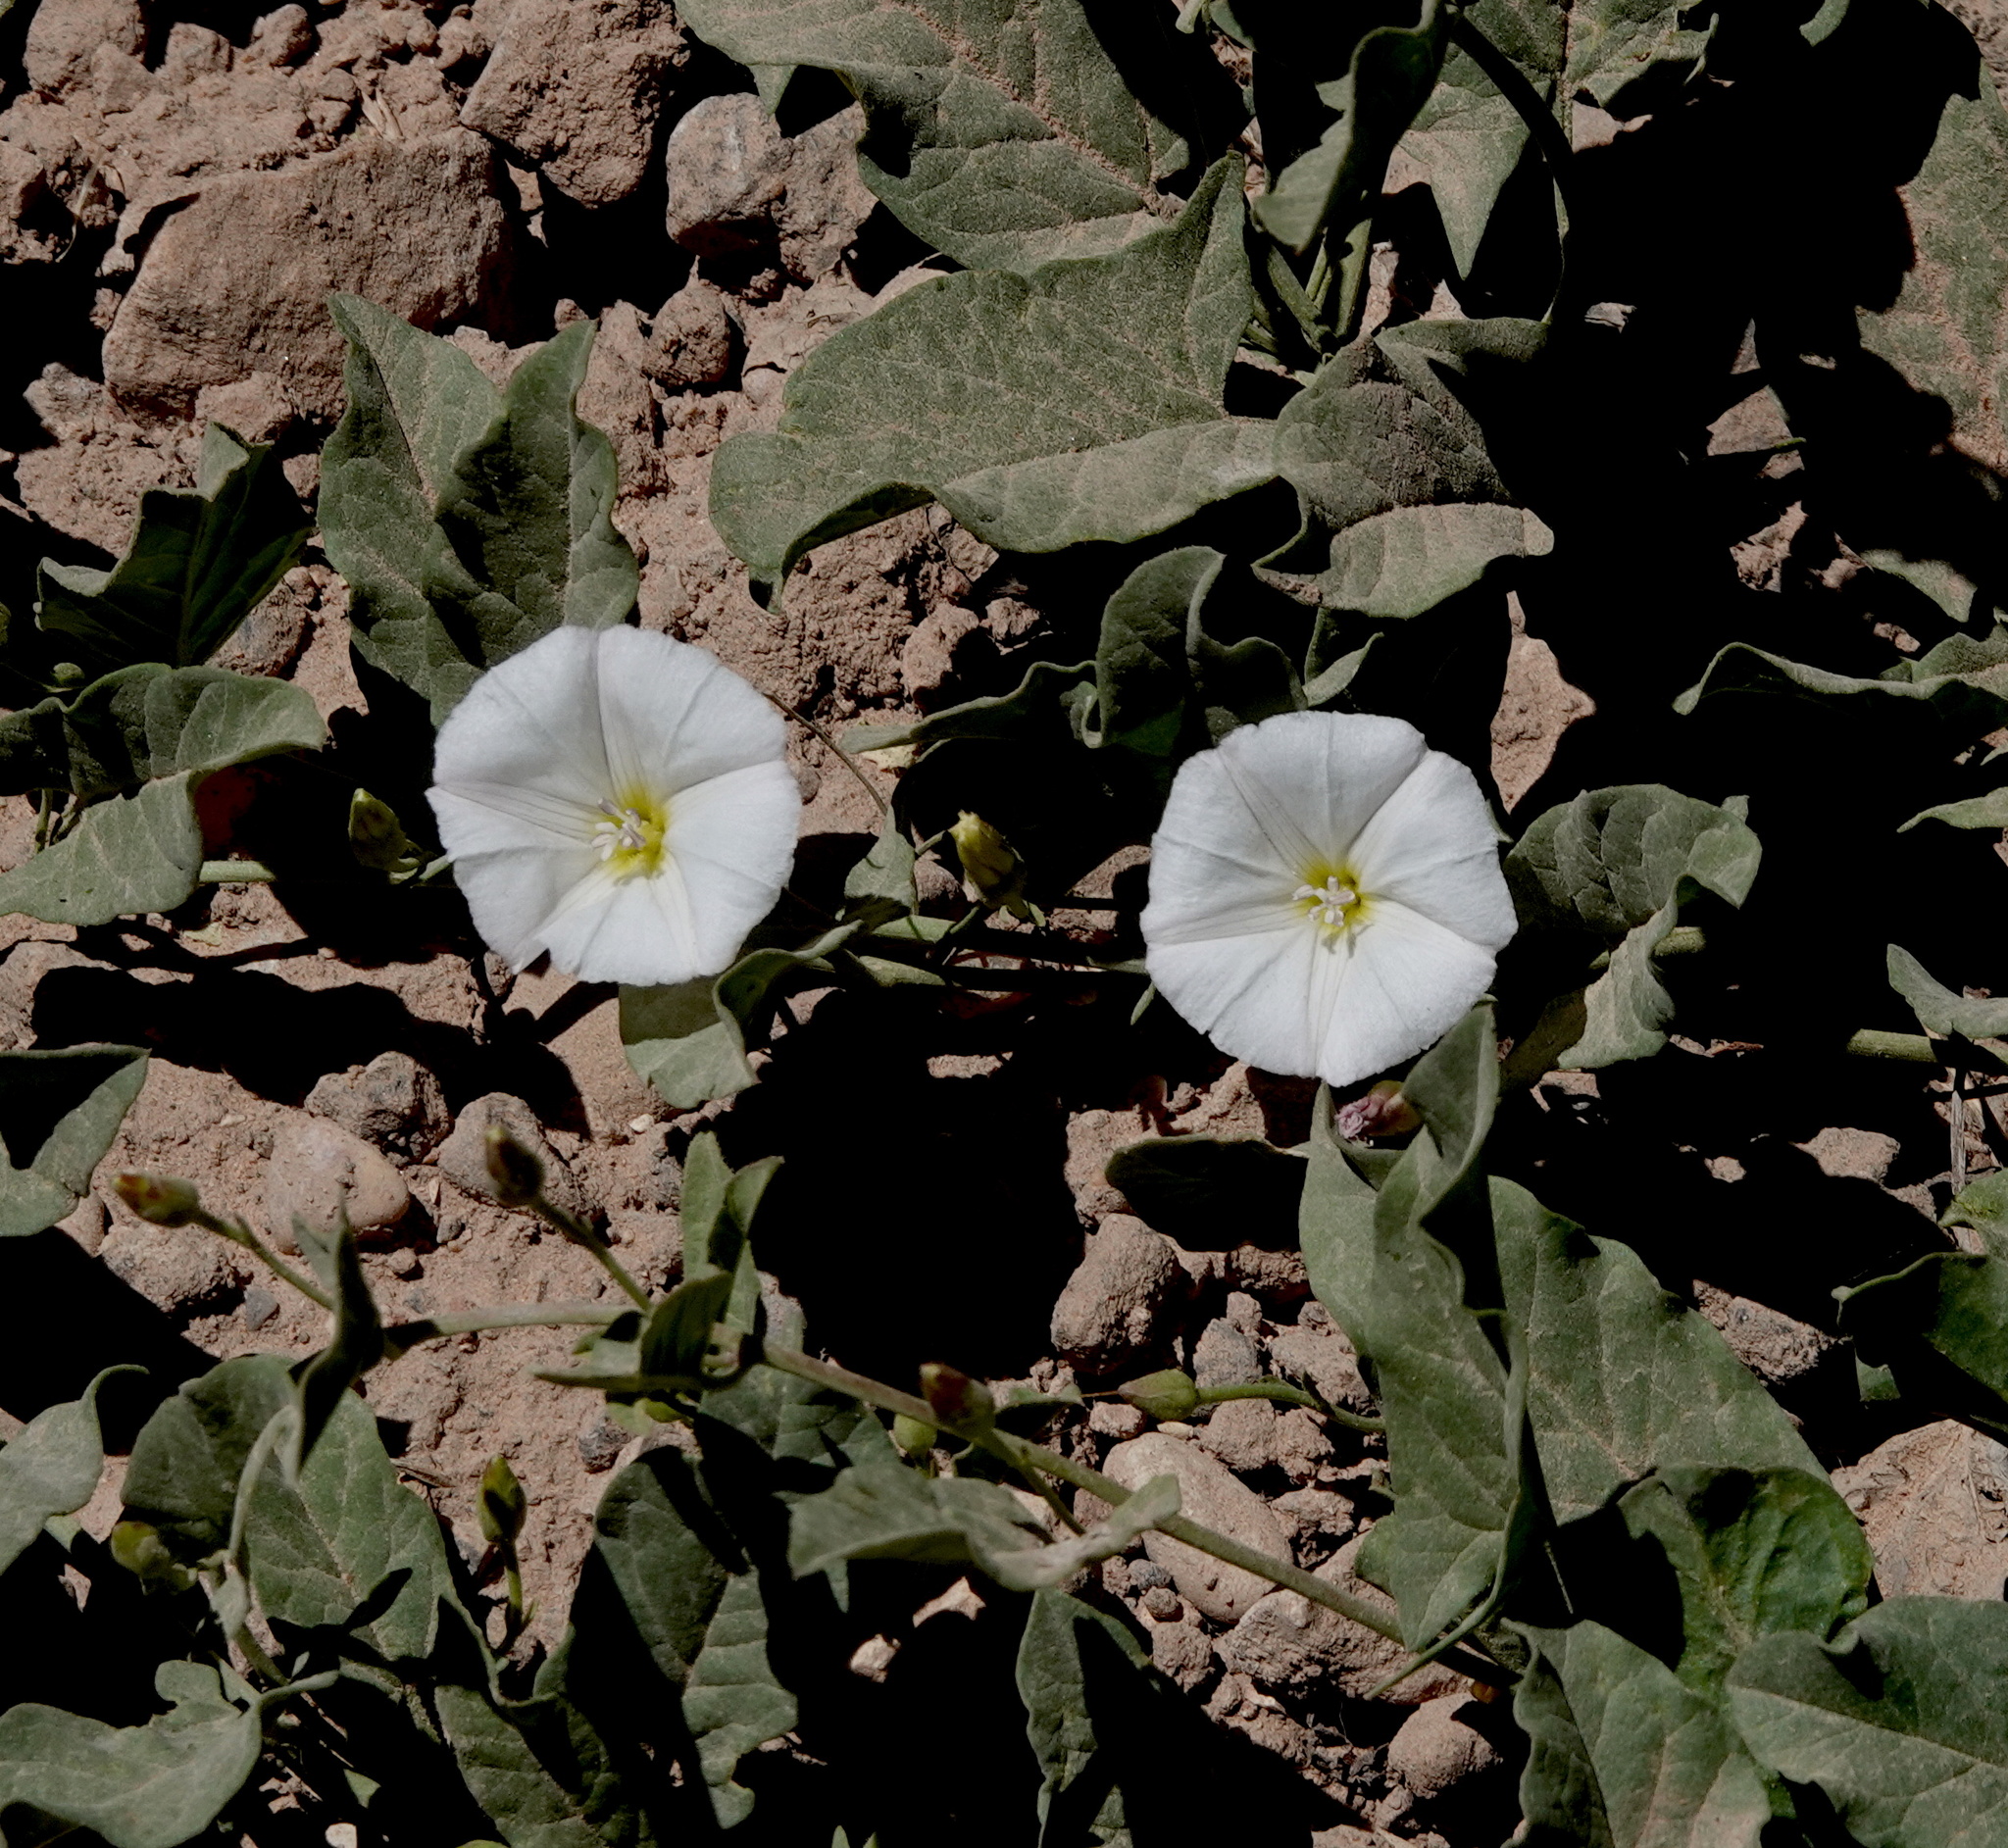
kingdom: Plantae
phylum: Tracheophyta
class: Magnoliopsida
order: Solanales
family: Convolvulaceae
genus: Convolvulus
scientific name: Convolvulus arvensis
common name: Field bindweed
